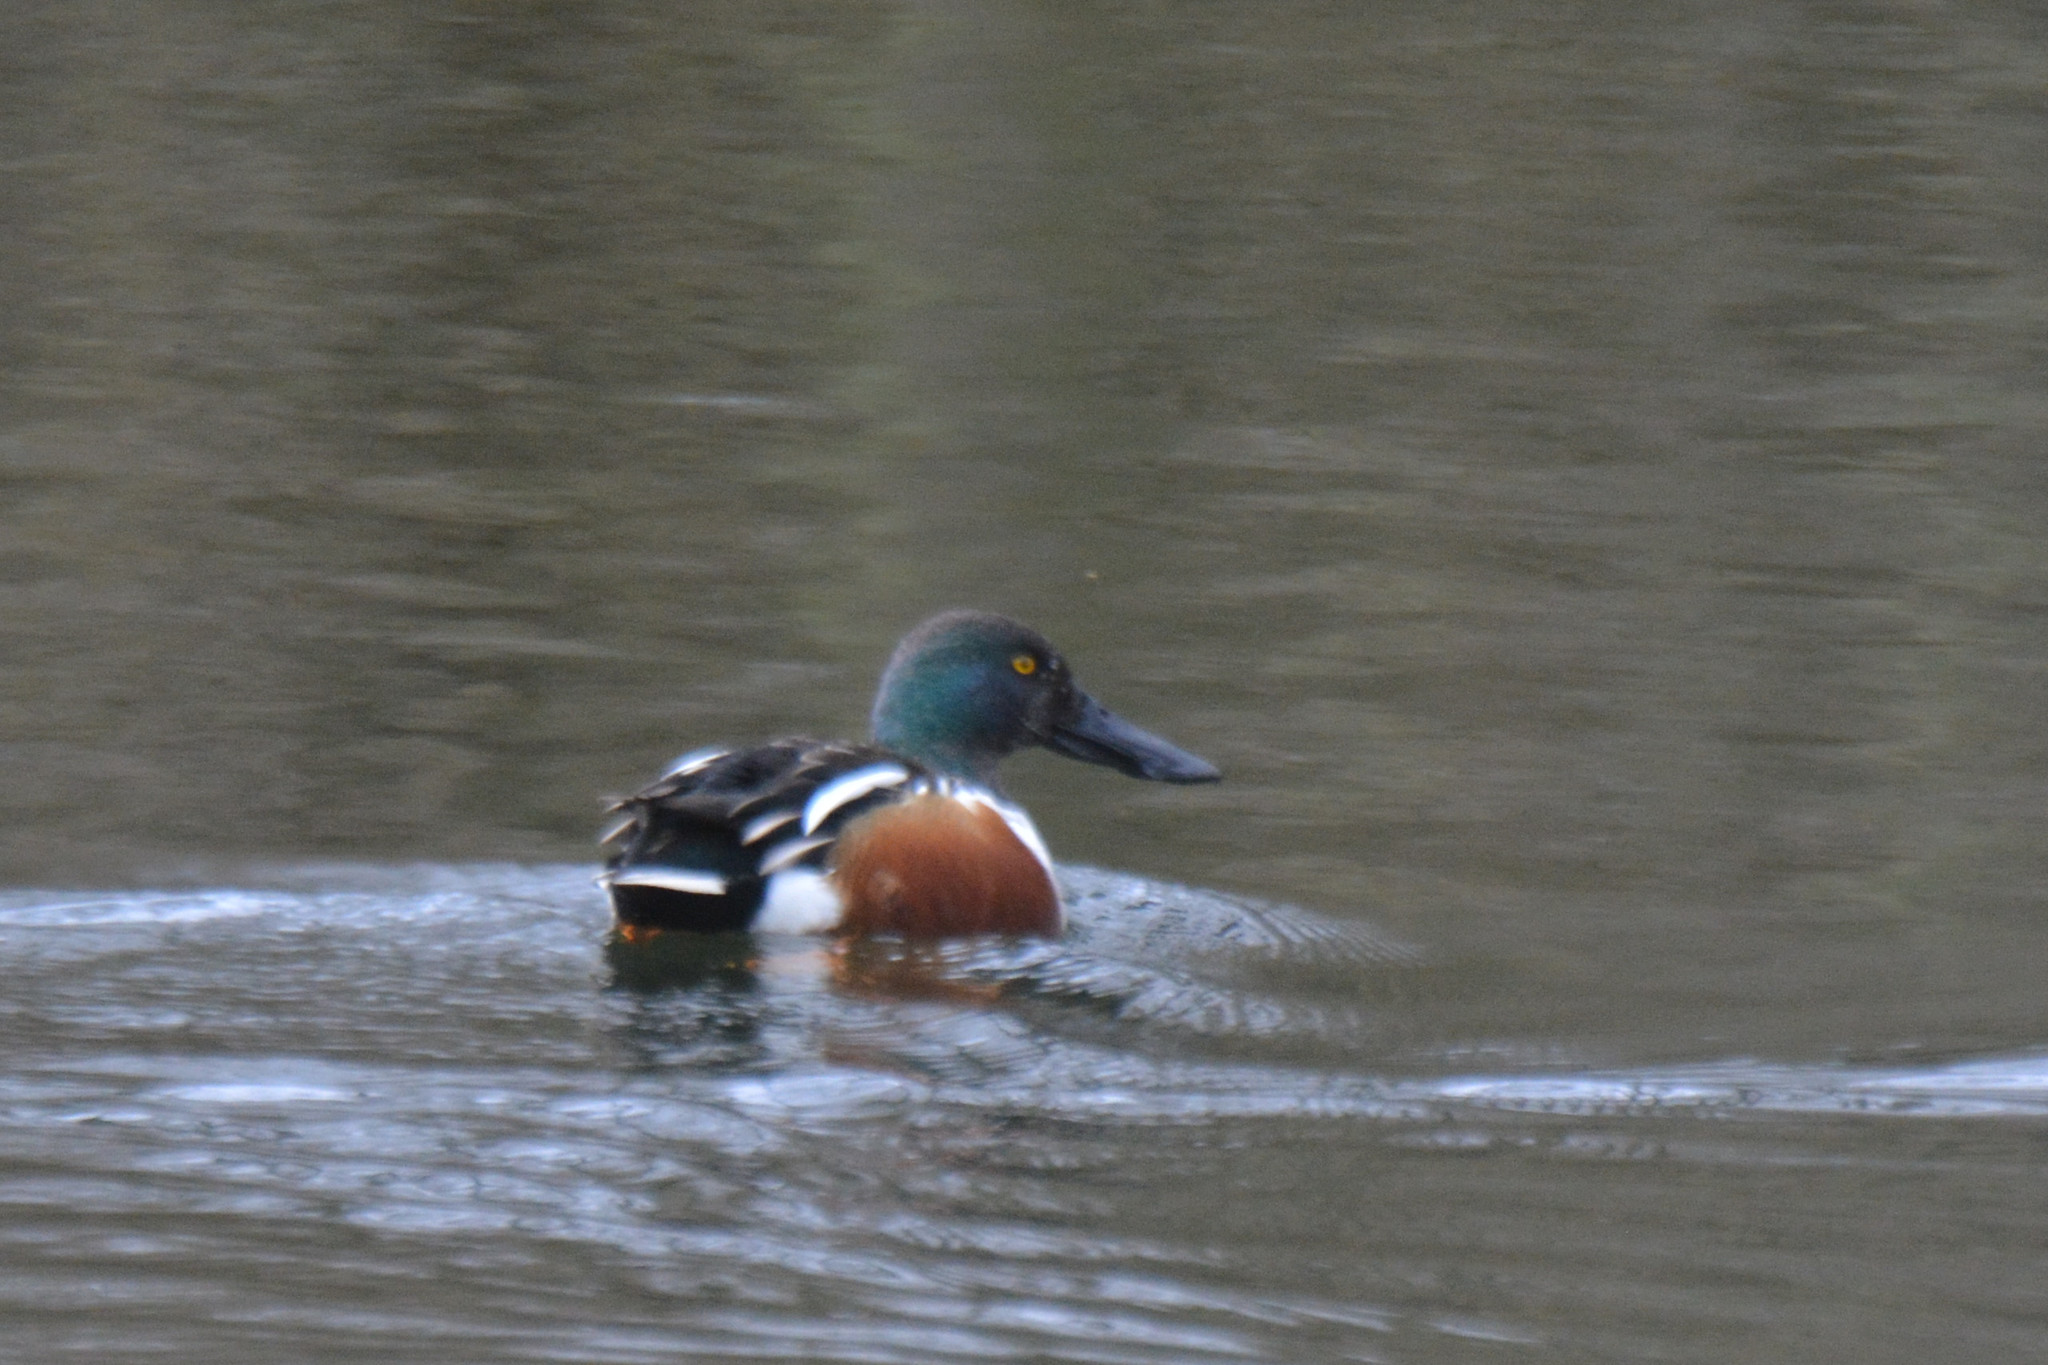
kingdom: Animalia
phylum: Chordata
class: Aves
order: Anseriformes
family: Anatidae
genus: Spatula
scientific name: Spatula clypeata
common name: Northern shoveler
